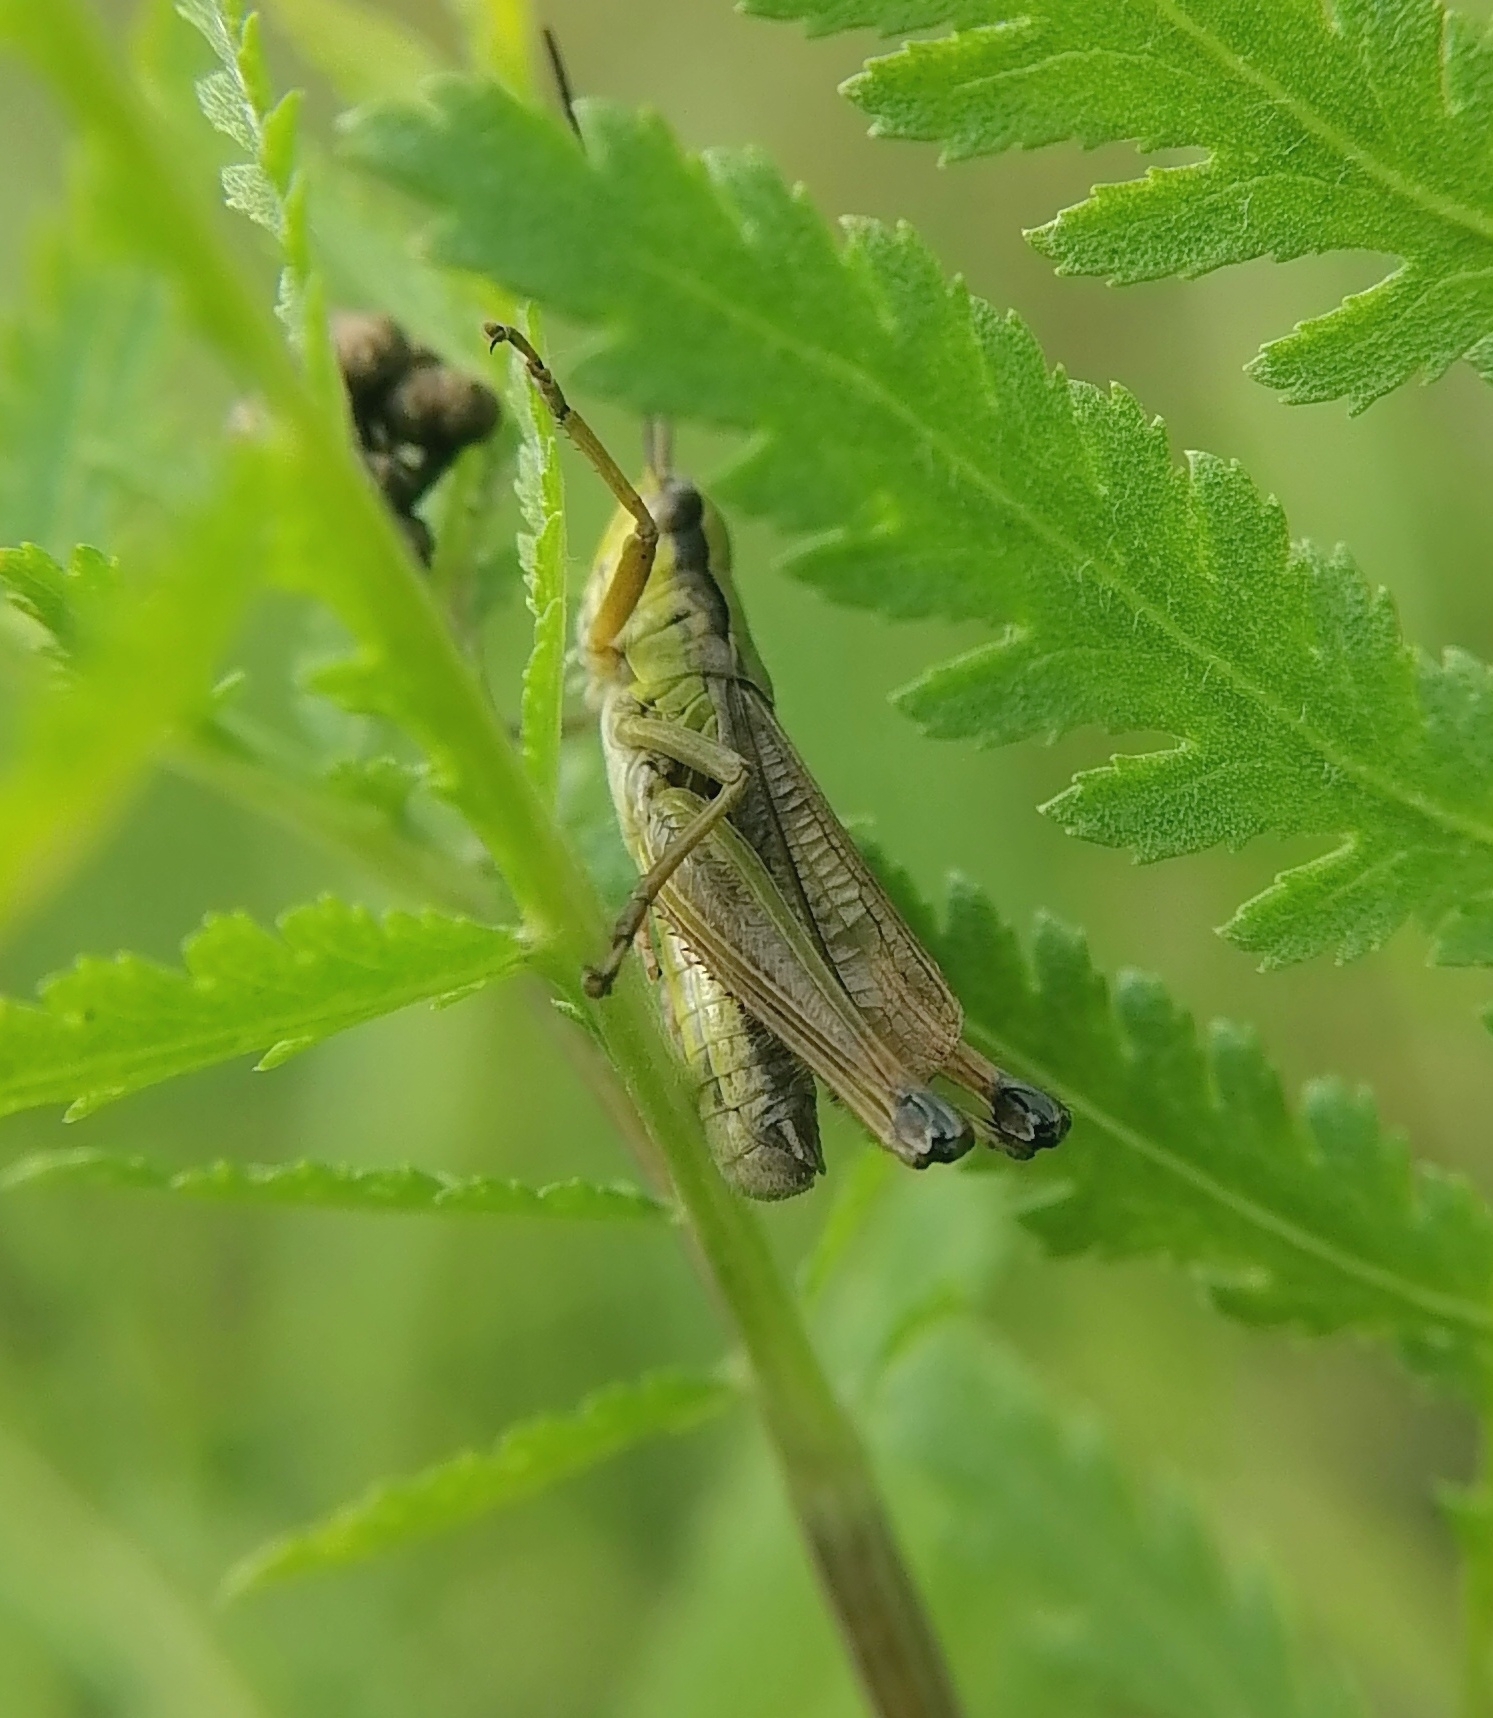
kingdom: Animalia
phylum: Arthropoda
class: Insecta
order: Orthoptera
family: Acrididae
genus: Chorthippus
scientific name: Chorthippus fallax
